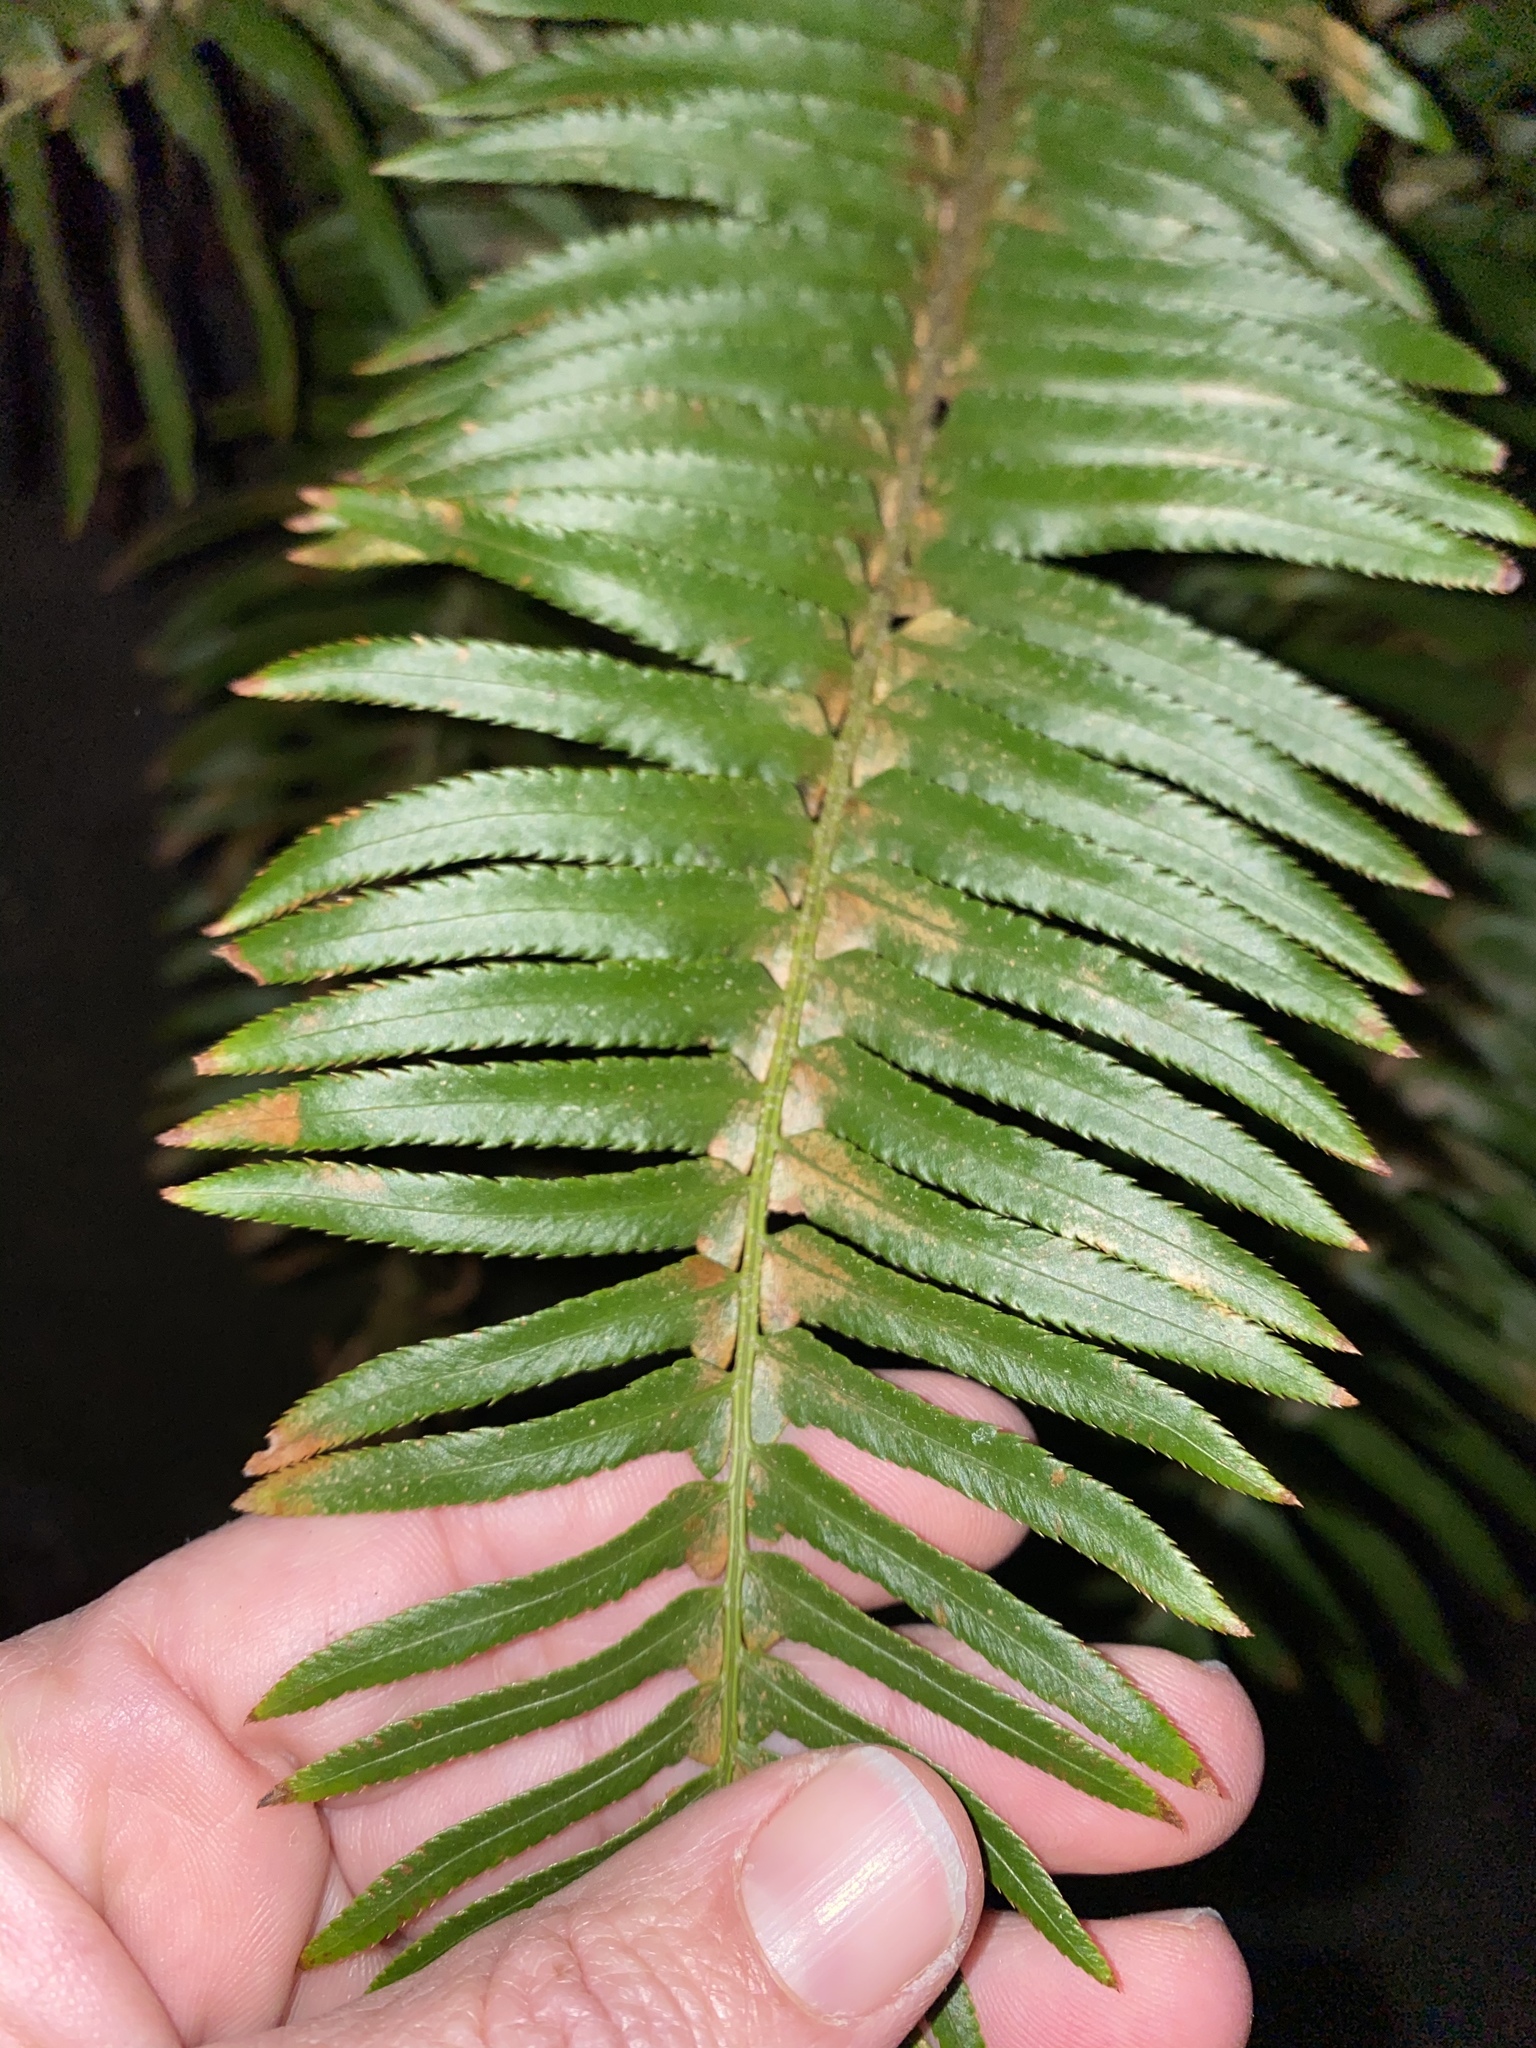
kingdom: Plantae
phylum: Tracheophyta
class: Polypodiopsida
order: Polypodiales
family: Dryopteridaceae
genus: Polystichum
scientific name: Polystichum munitum
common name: Western sword-fern
